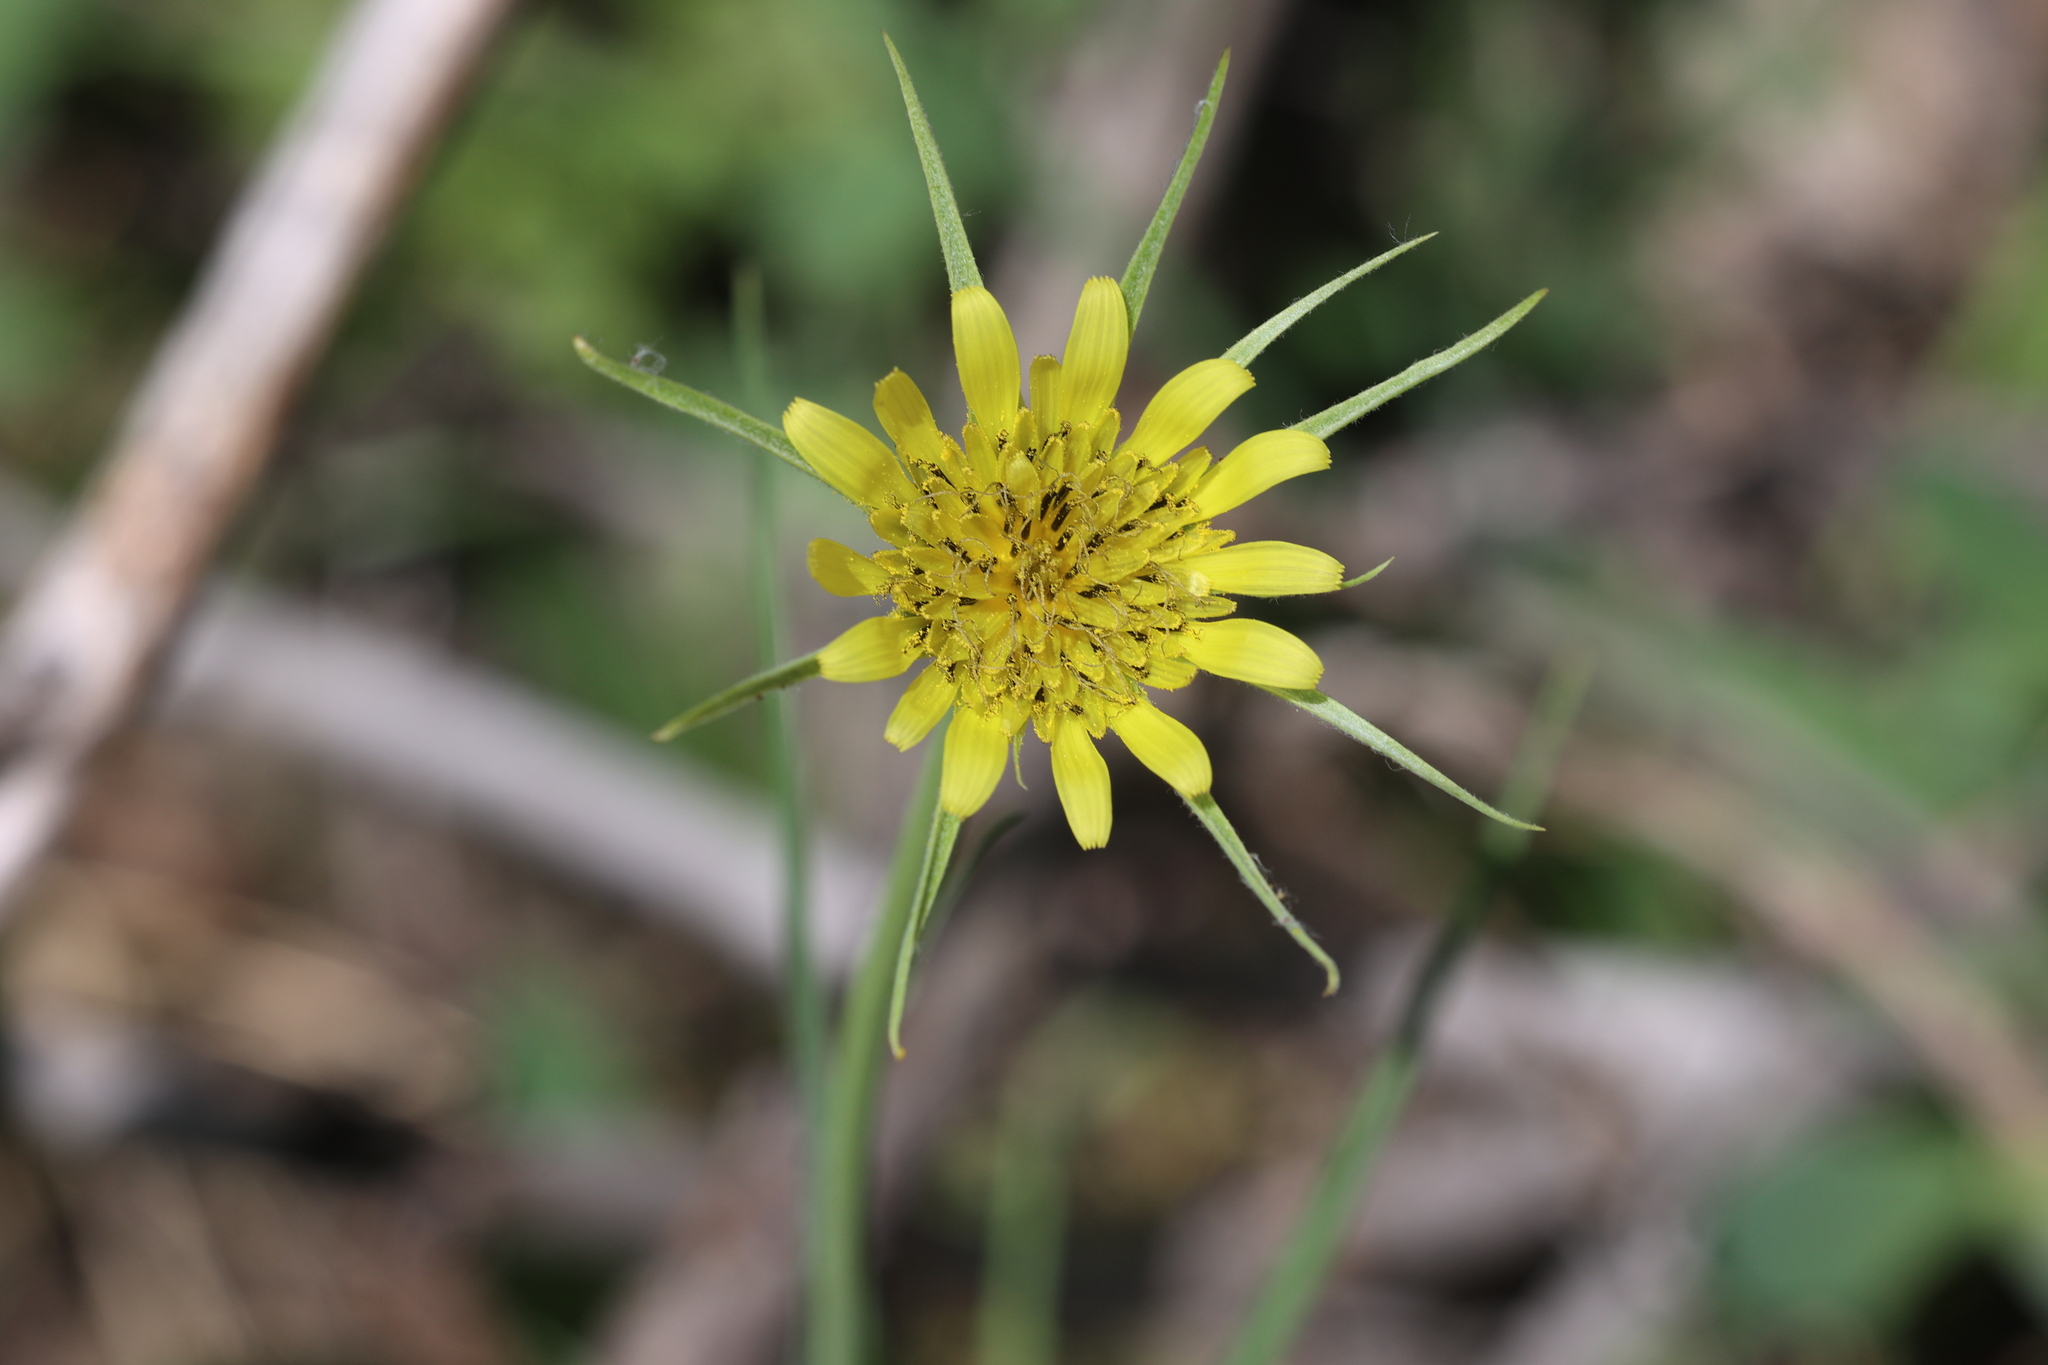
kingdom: Plantae
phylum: Tracheophyta
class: Magnoliopsida
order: Asterales
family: Asteraceae
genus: Tragopogon
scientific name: Tragopogon dubius
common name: Yellow salsify
